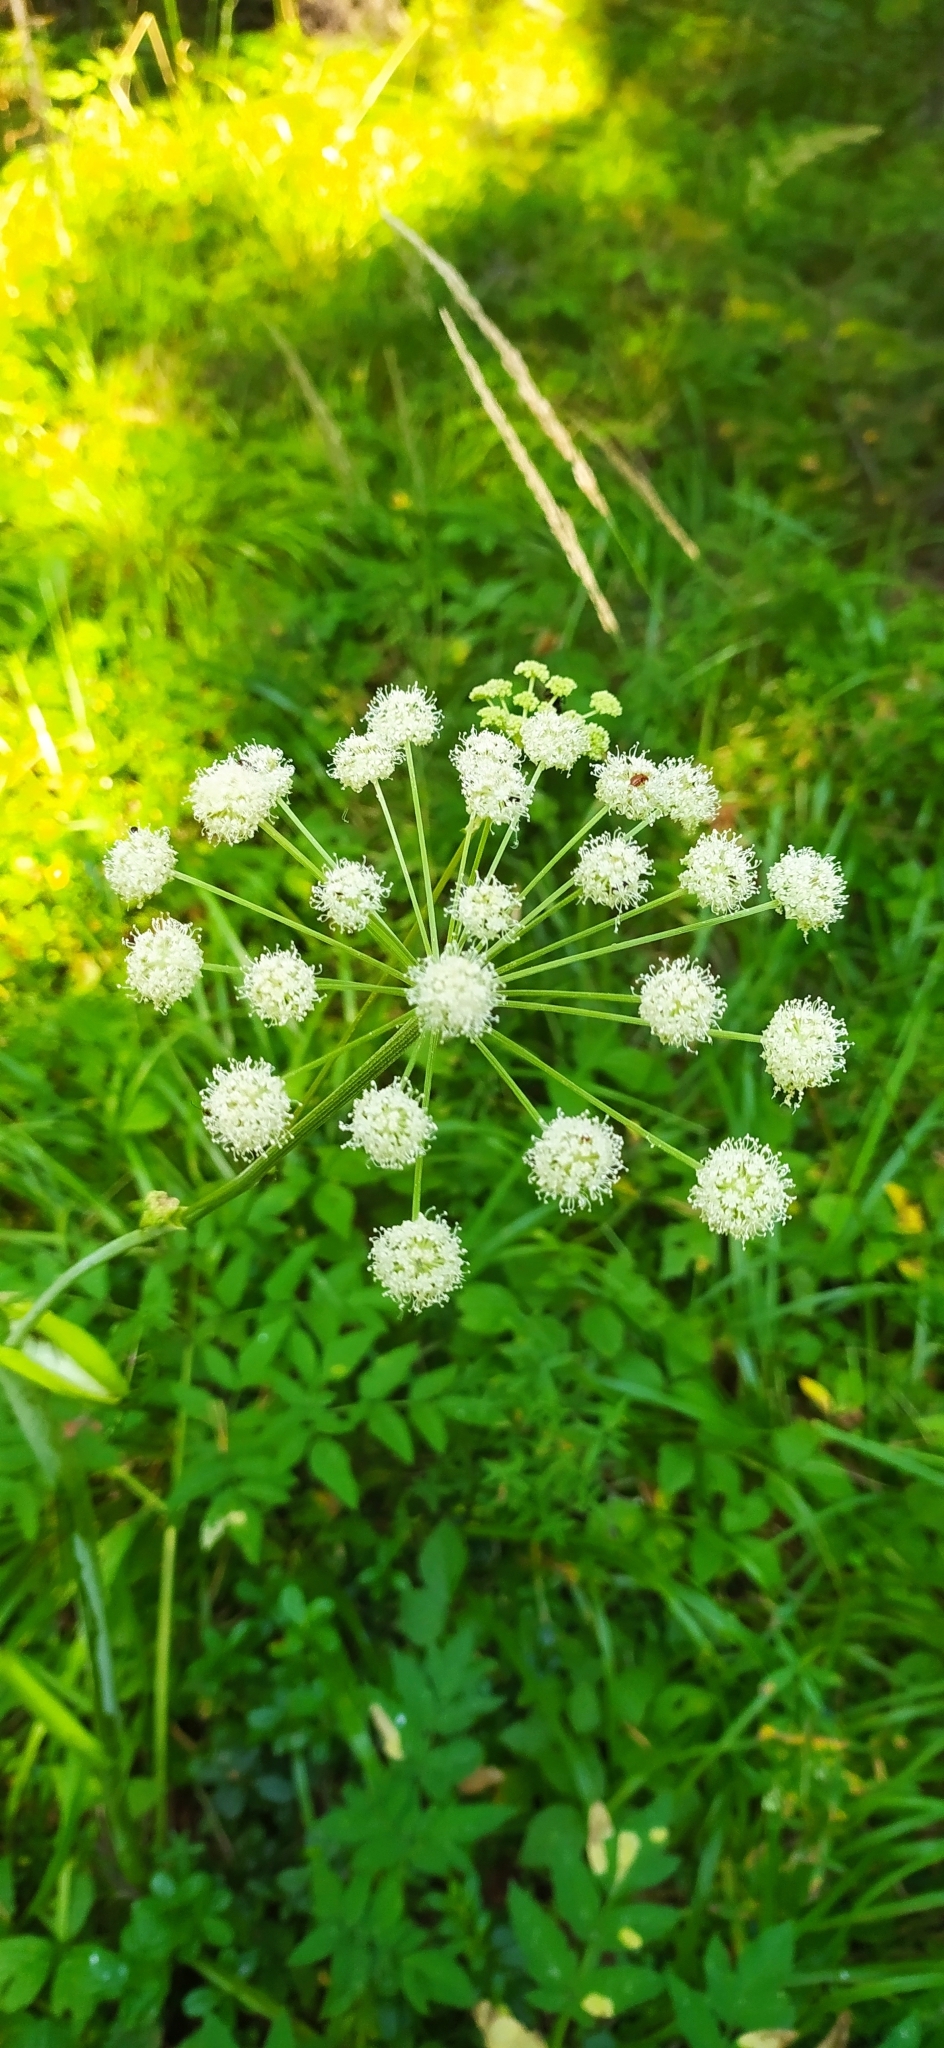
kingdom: Plantae
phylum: Tracheophyta
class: Magnoliopsida
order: Apiales
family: Apiaceae
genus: Angelica
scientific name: Angelica sylvestris
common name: Wild angelica
